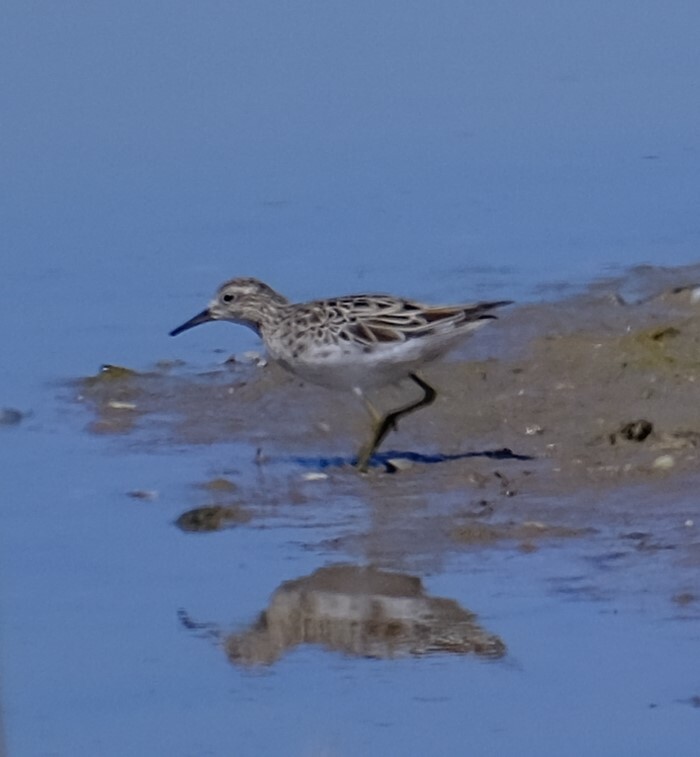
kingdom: Animalia
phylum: Chordata
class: Aves
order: Charadriiformes
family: Scolopacidae
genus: Calidris
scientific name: Calidris acuminata
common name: Sharp-tailed sandpiper
